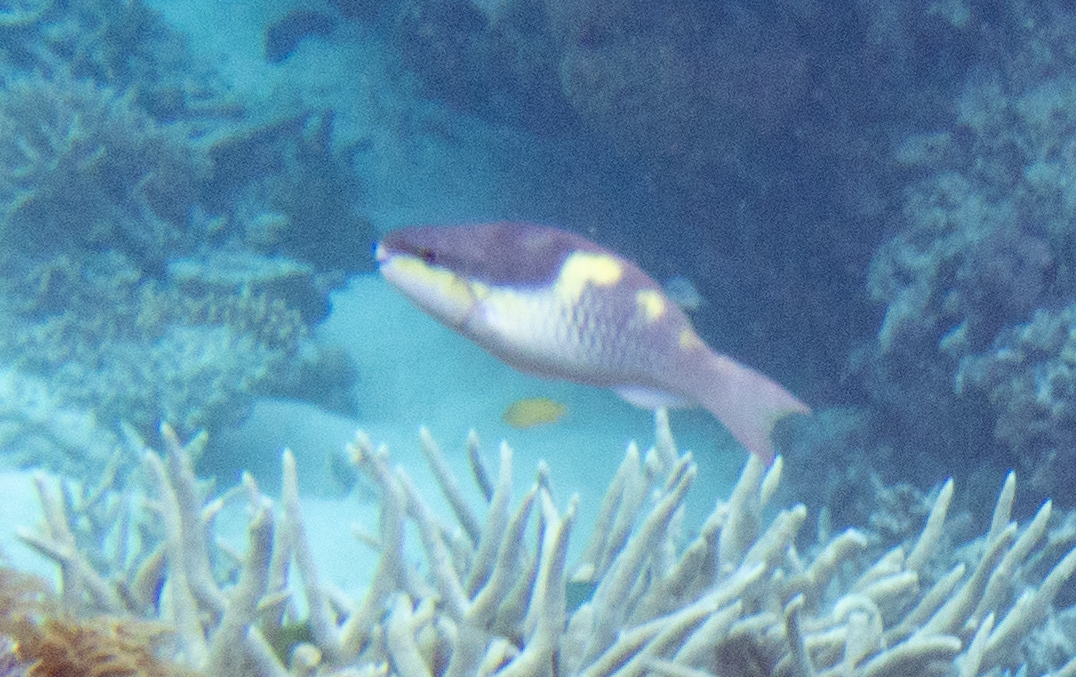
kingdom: Animalia
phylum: Chordata
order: Perciformes
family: Scaridae
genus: Scarus
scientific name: Scarus oviceps
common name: Blue parrotfish
